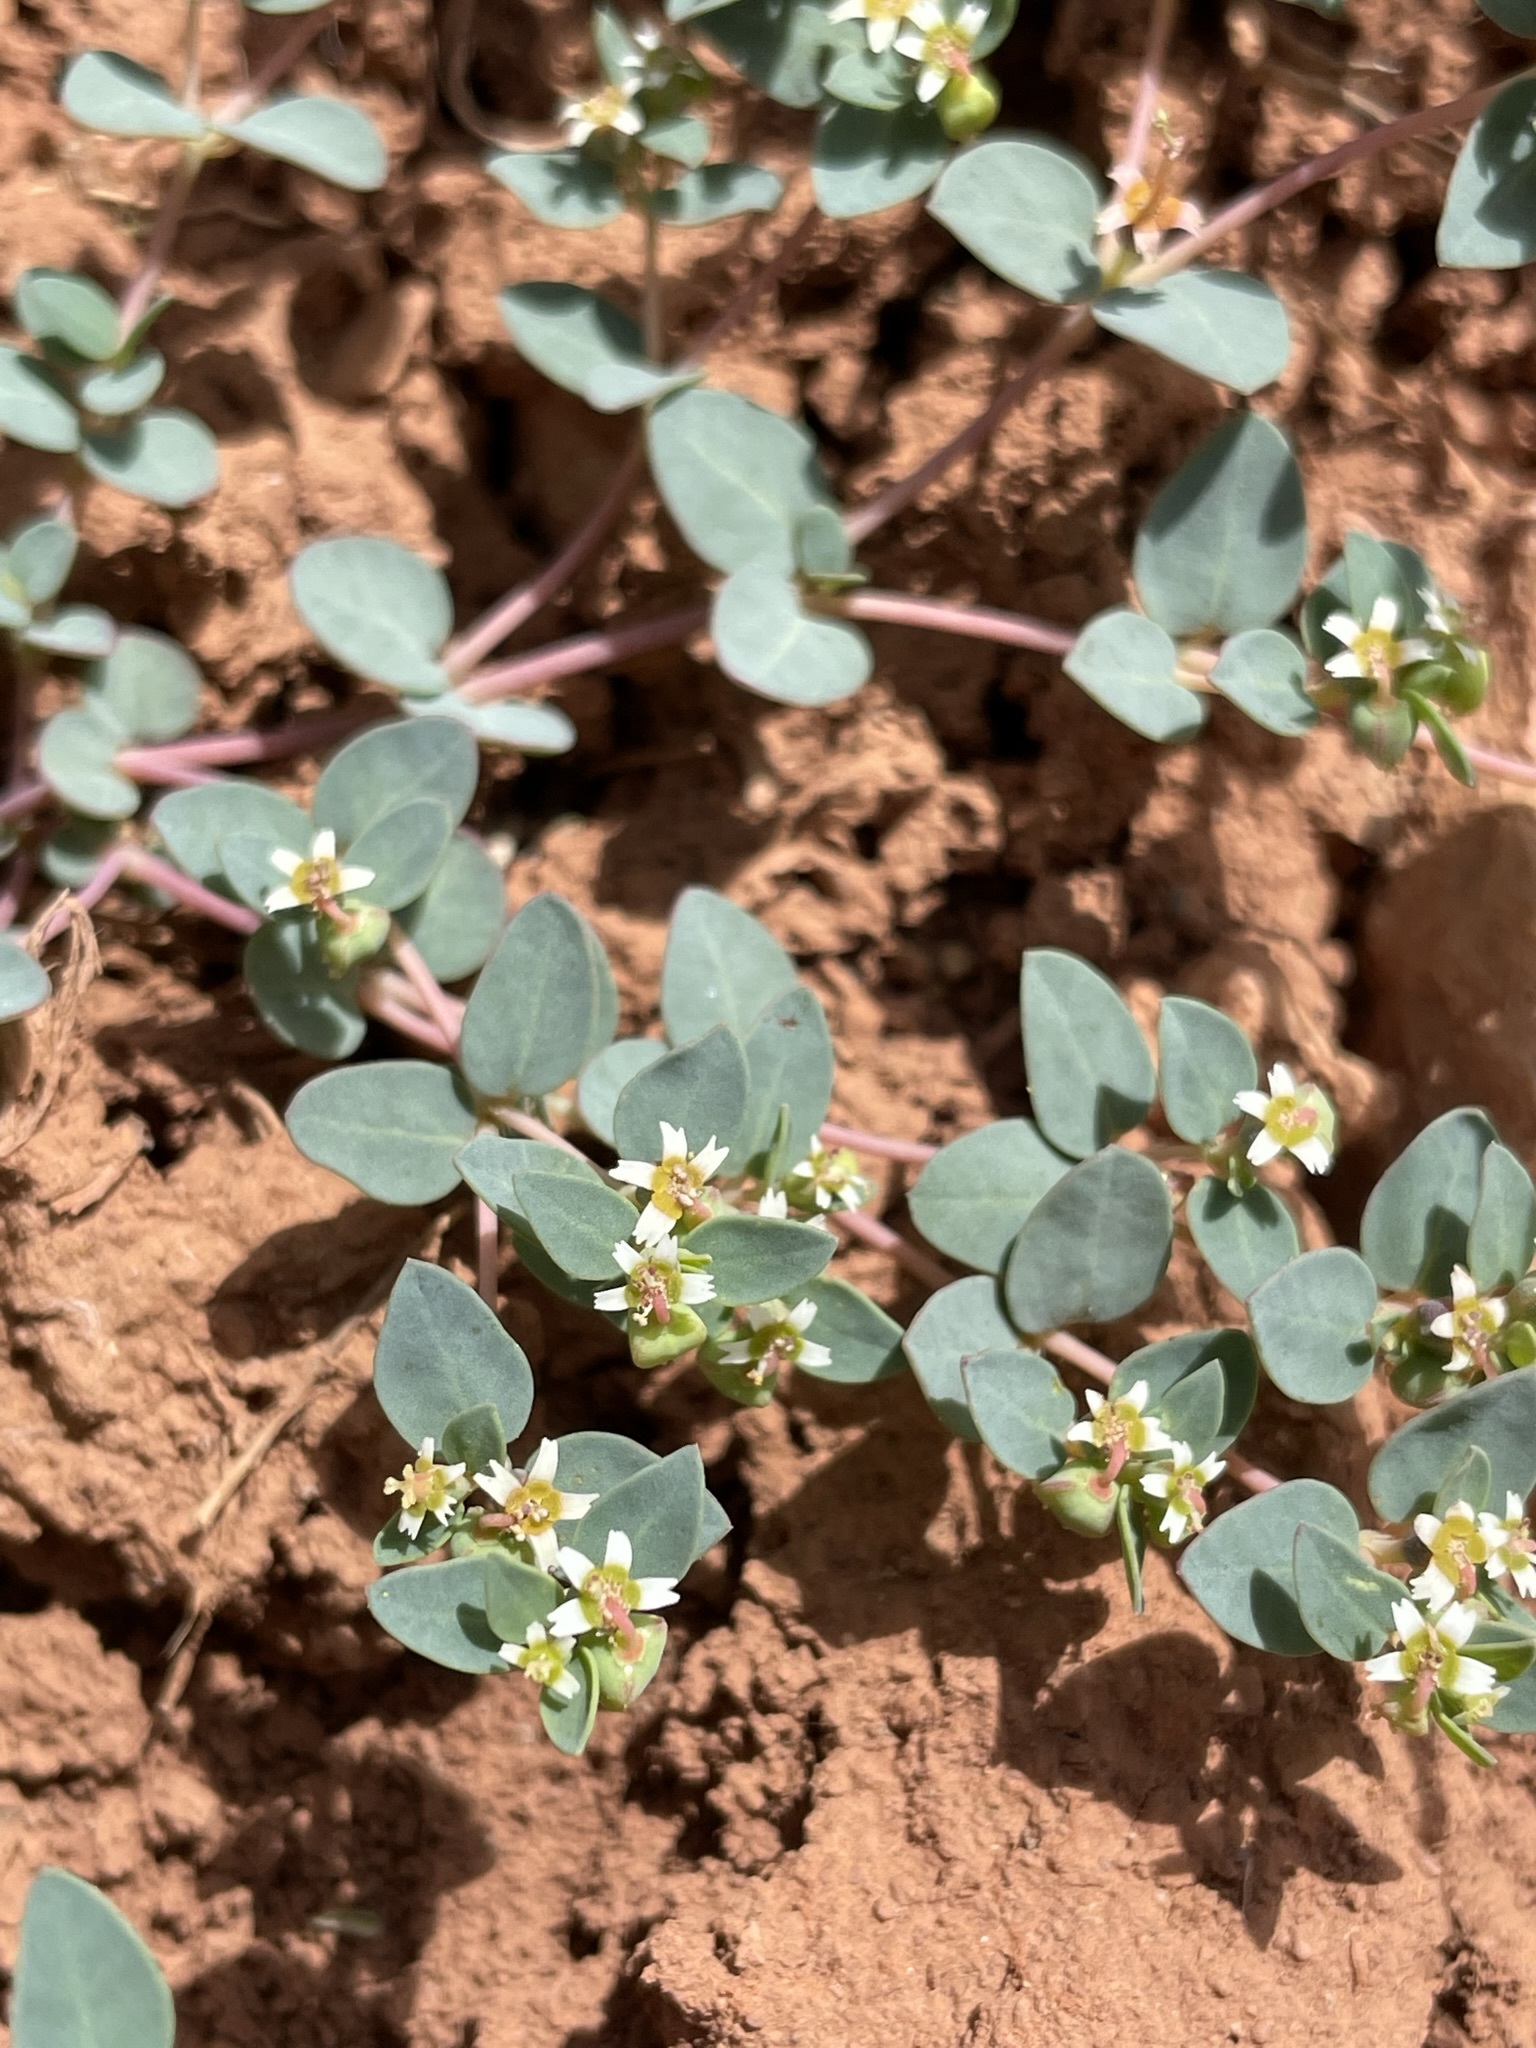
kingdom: Plantae
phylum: Tracheophyta
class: Magnoliopsida
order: Malpighiales
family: Euphorbiaceae
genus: Euphorbia
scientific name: Euphorbia fendleri
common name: Fendler's euphorbia
